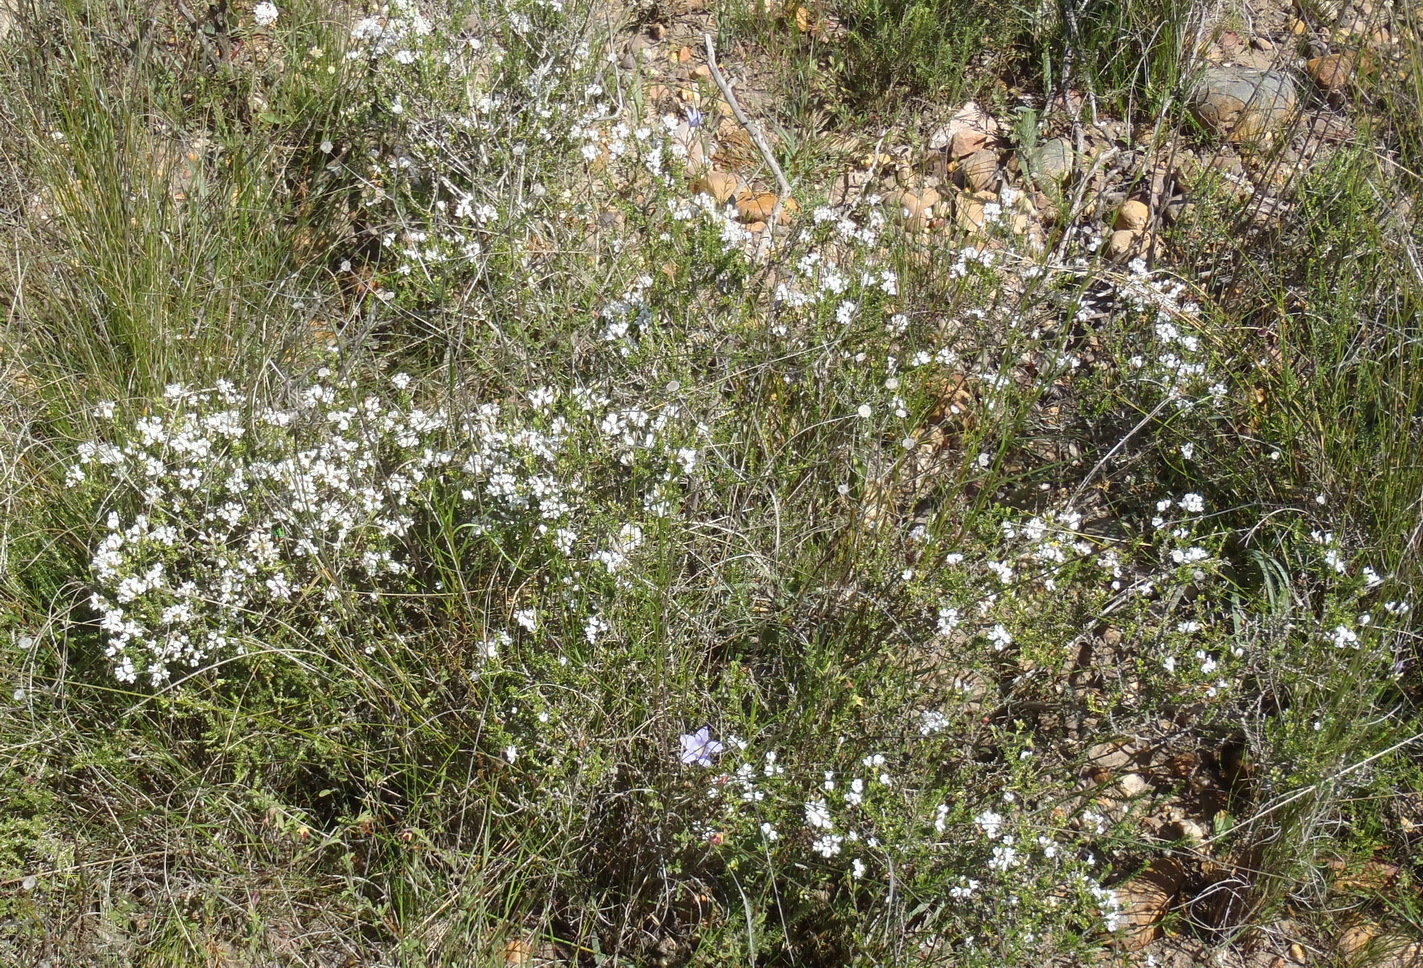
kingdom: Plantae
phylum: Tracheophyta
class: Magnoliopsida
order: Fabales
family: Fabaceae
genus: Aspalathus
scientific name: Aspalathus nigra
